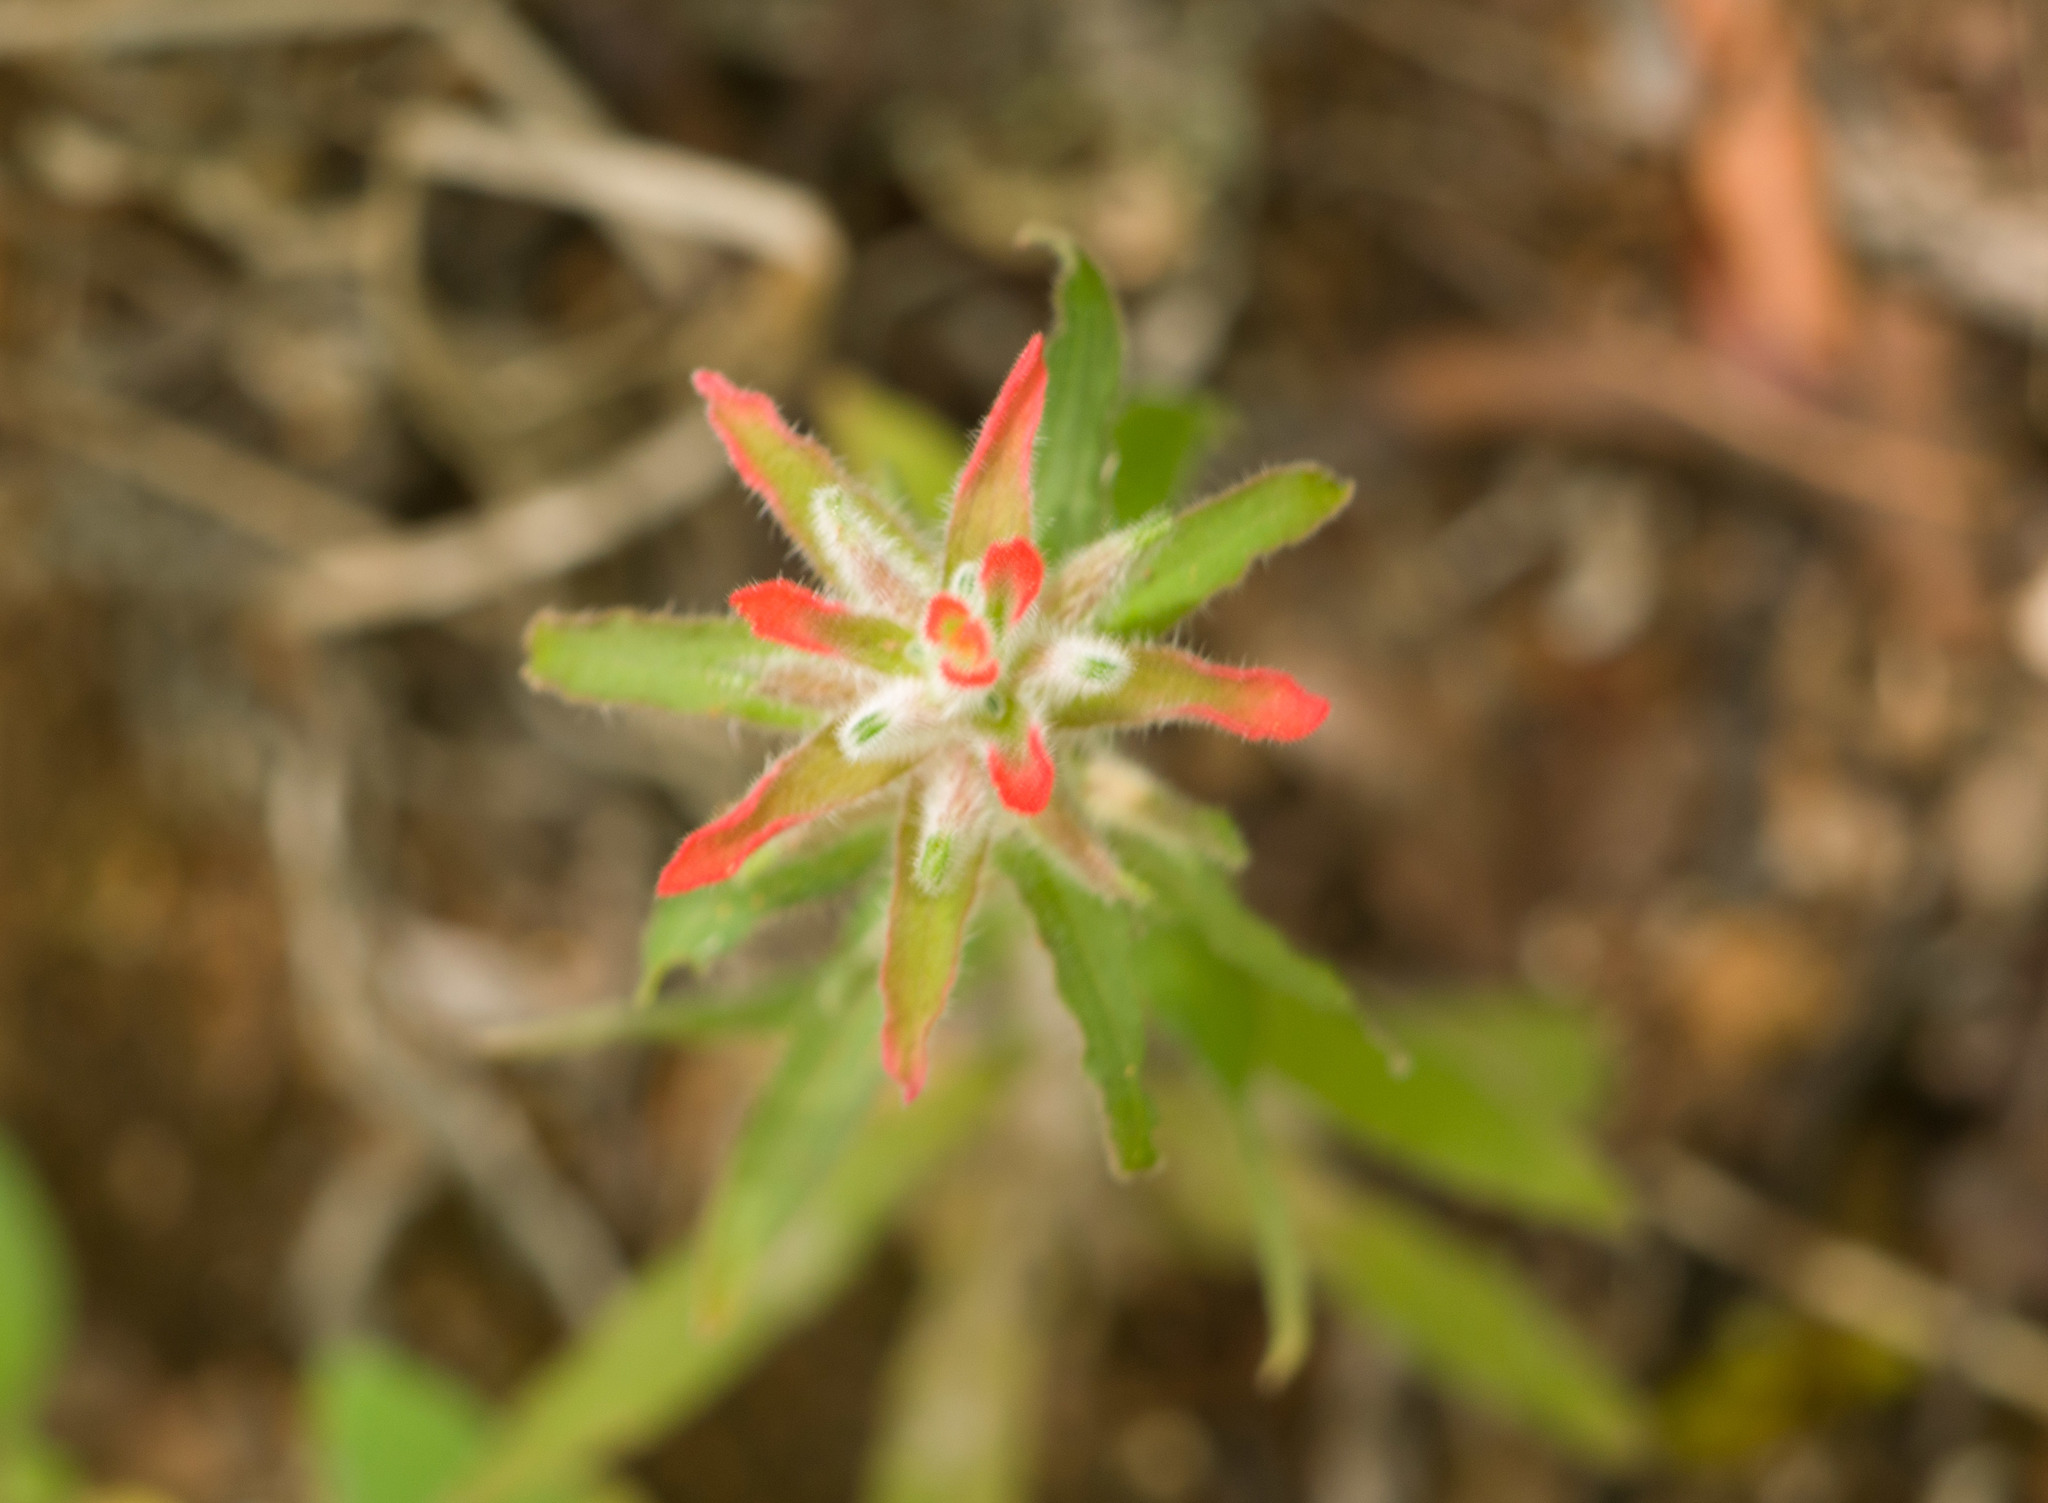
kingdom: Plantae
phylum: Tracheophyta
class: Magnoliopsida
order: Lamiales
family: Orobanchaceae
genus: Castilleja
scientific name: Castilleja arvensis
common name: Indian paintbrush
